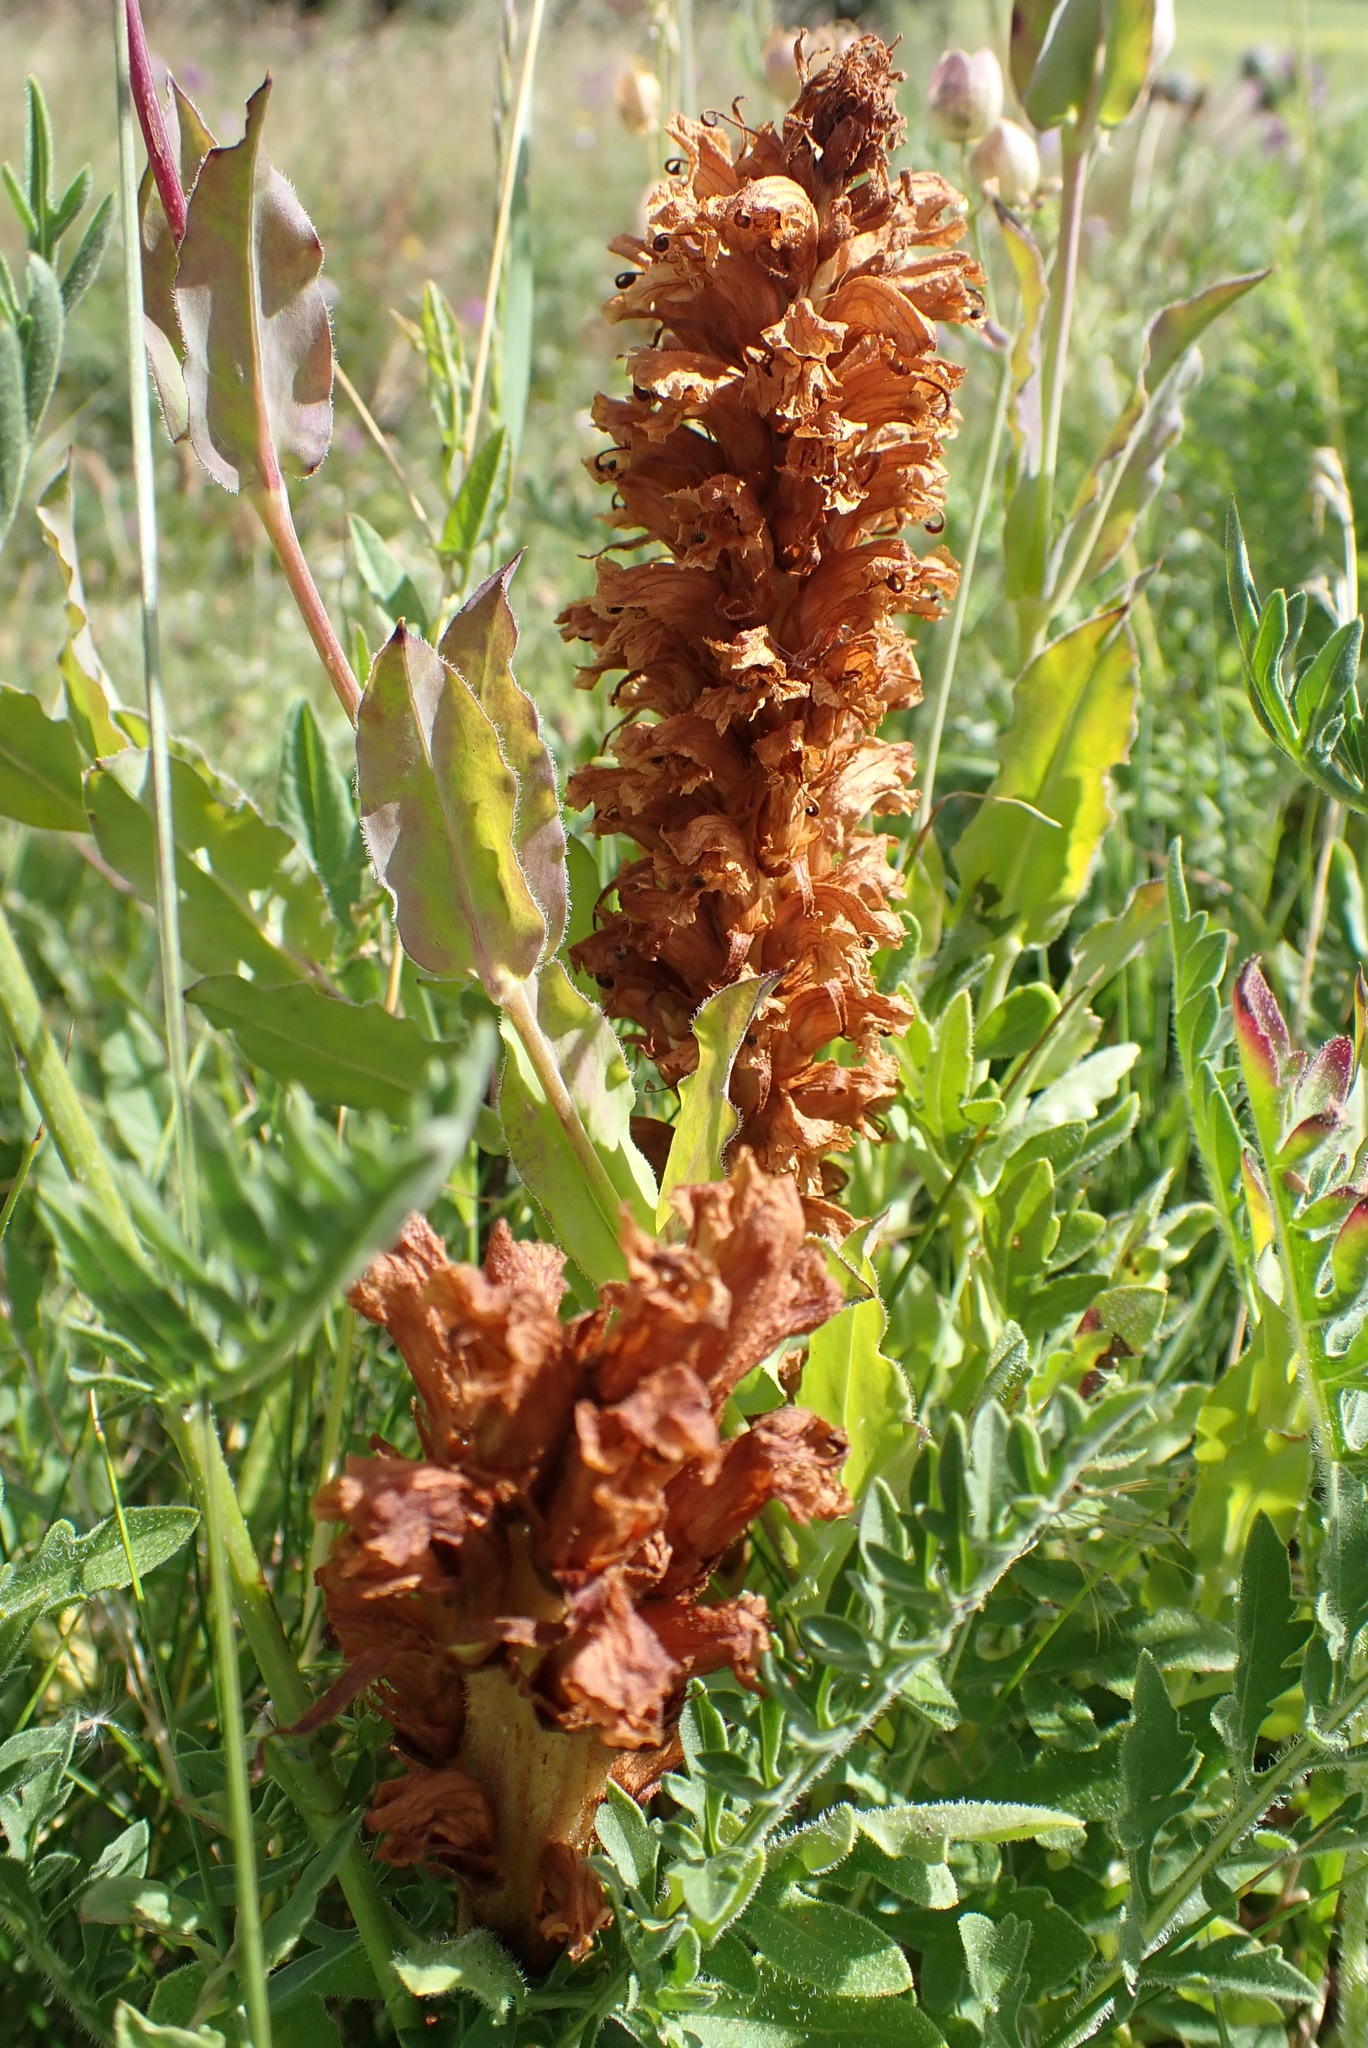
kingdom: Plantae
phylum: Tracheophyta
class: Magnoliopsida
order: Lamiales
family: Orobanchaceae
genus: Orobanche
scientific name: Orobanche elatior
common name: Knapweed broomrape
